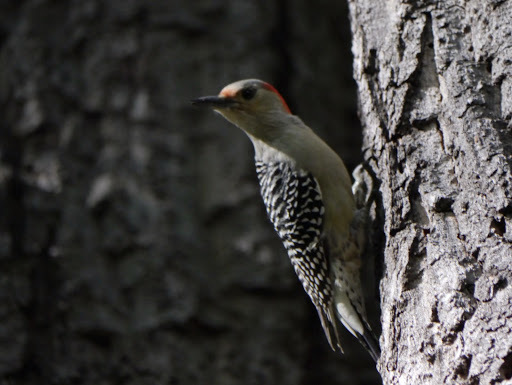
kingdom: Animalia
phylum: Chordata
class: Aves
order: Piciformes
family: Picidae
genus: Melanerpes
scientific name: Melanerpes carolinus
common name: Red-bellied woodpecker
